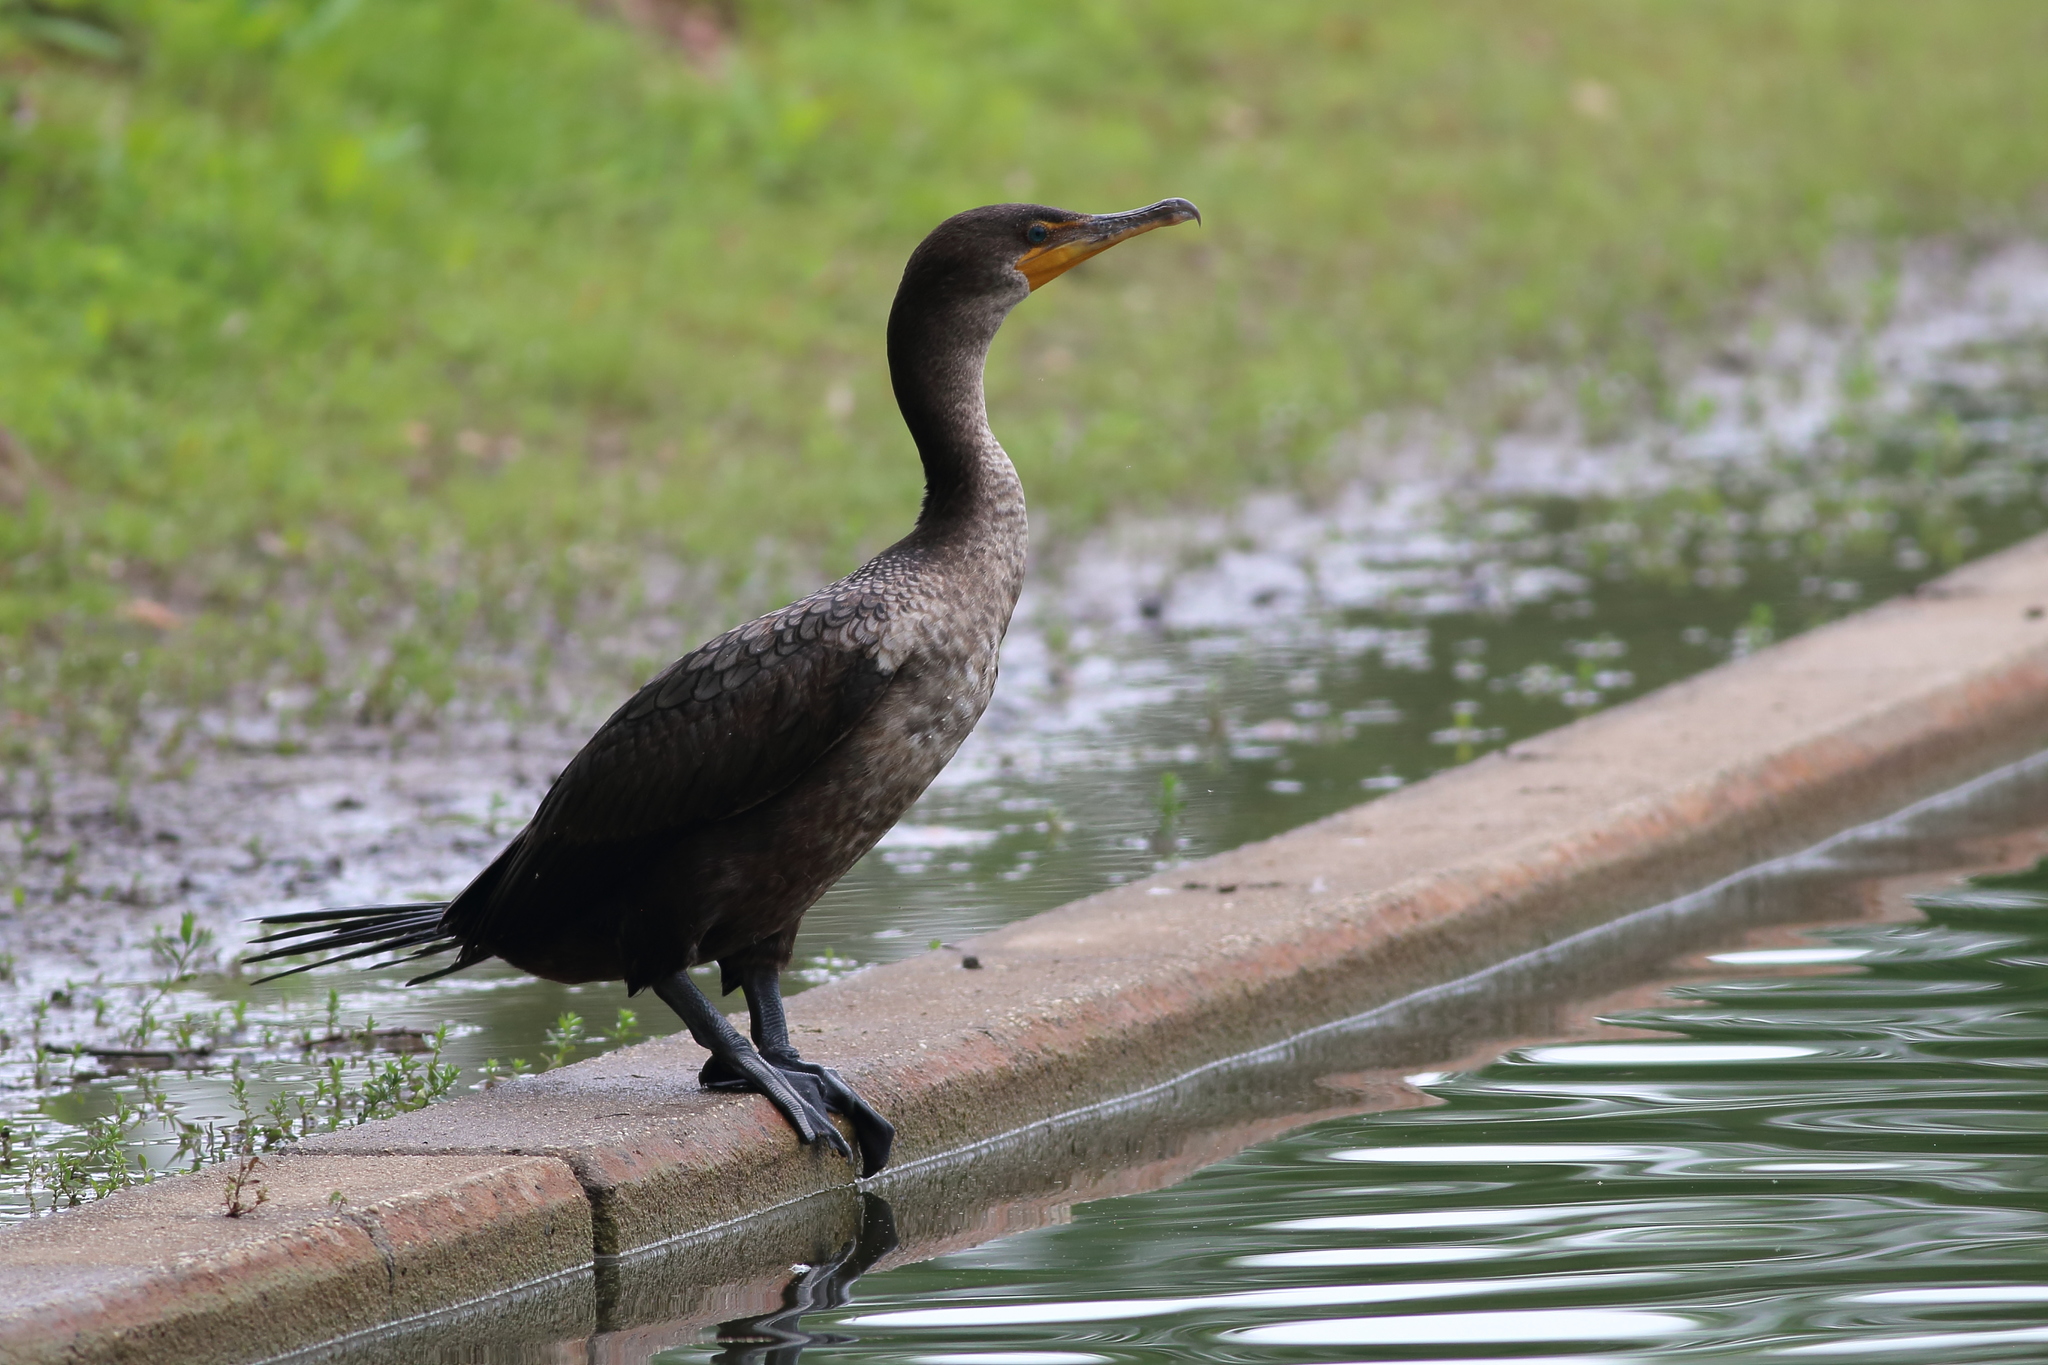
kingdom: Animalia
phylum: Chordata
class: Aves
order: Suliformes
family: Phalacrocoracidae
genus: Phalacrocorax
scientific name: Phalacrocorax auritus
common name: Double-crested cormorant
